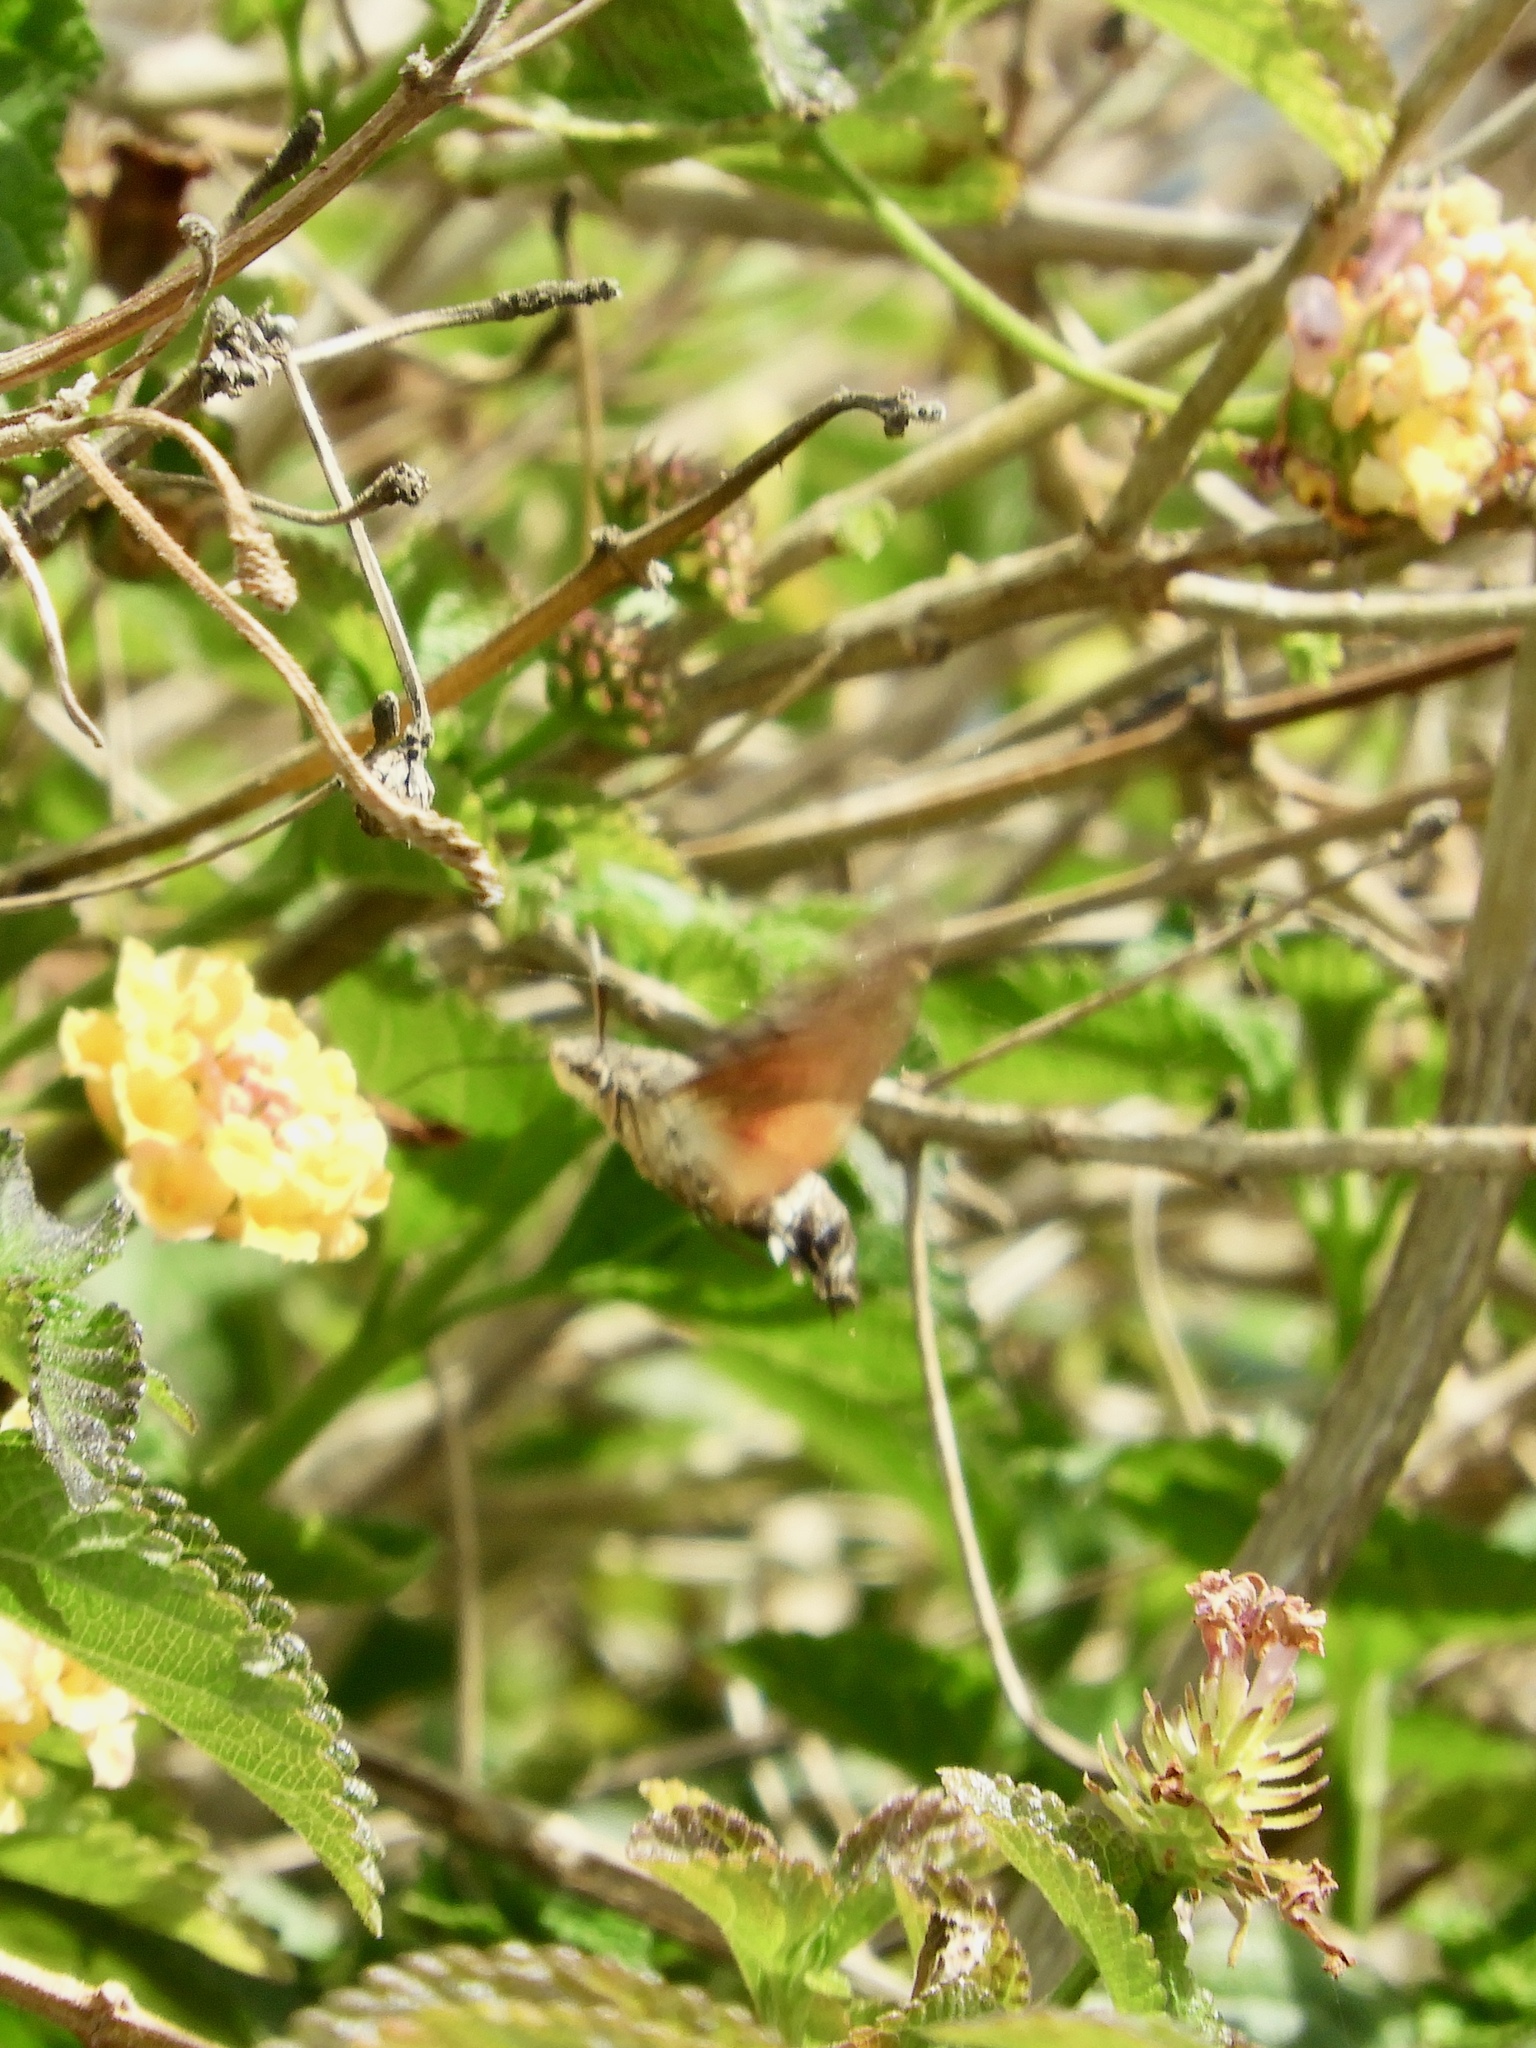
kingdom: Animalia
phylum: Arthropoda
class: Insecta
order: Lepidoptera
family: Sphingidae
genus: Macroglossum
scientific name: Macroglossum stellatarum
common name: Humming-bird hawk-moth
